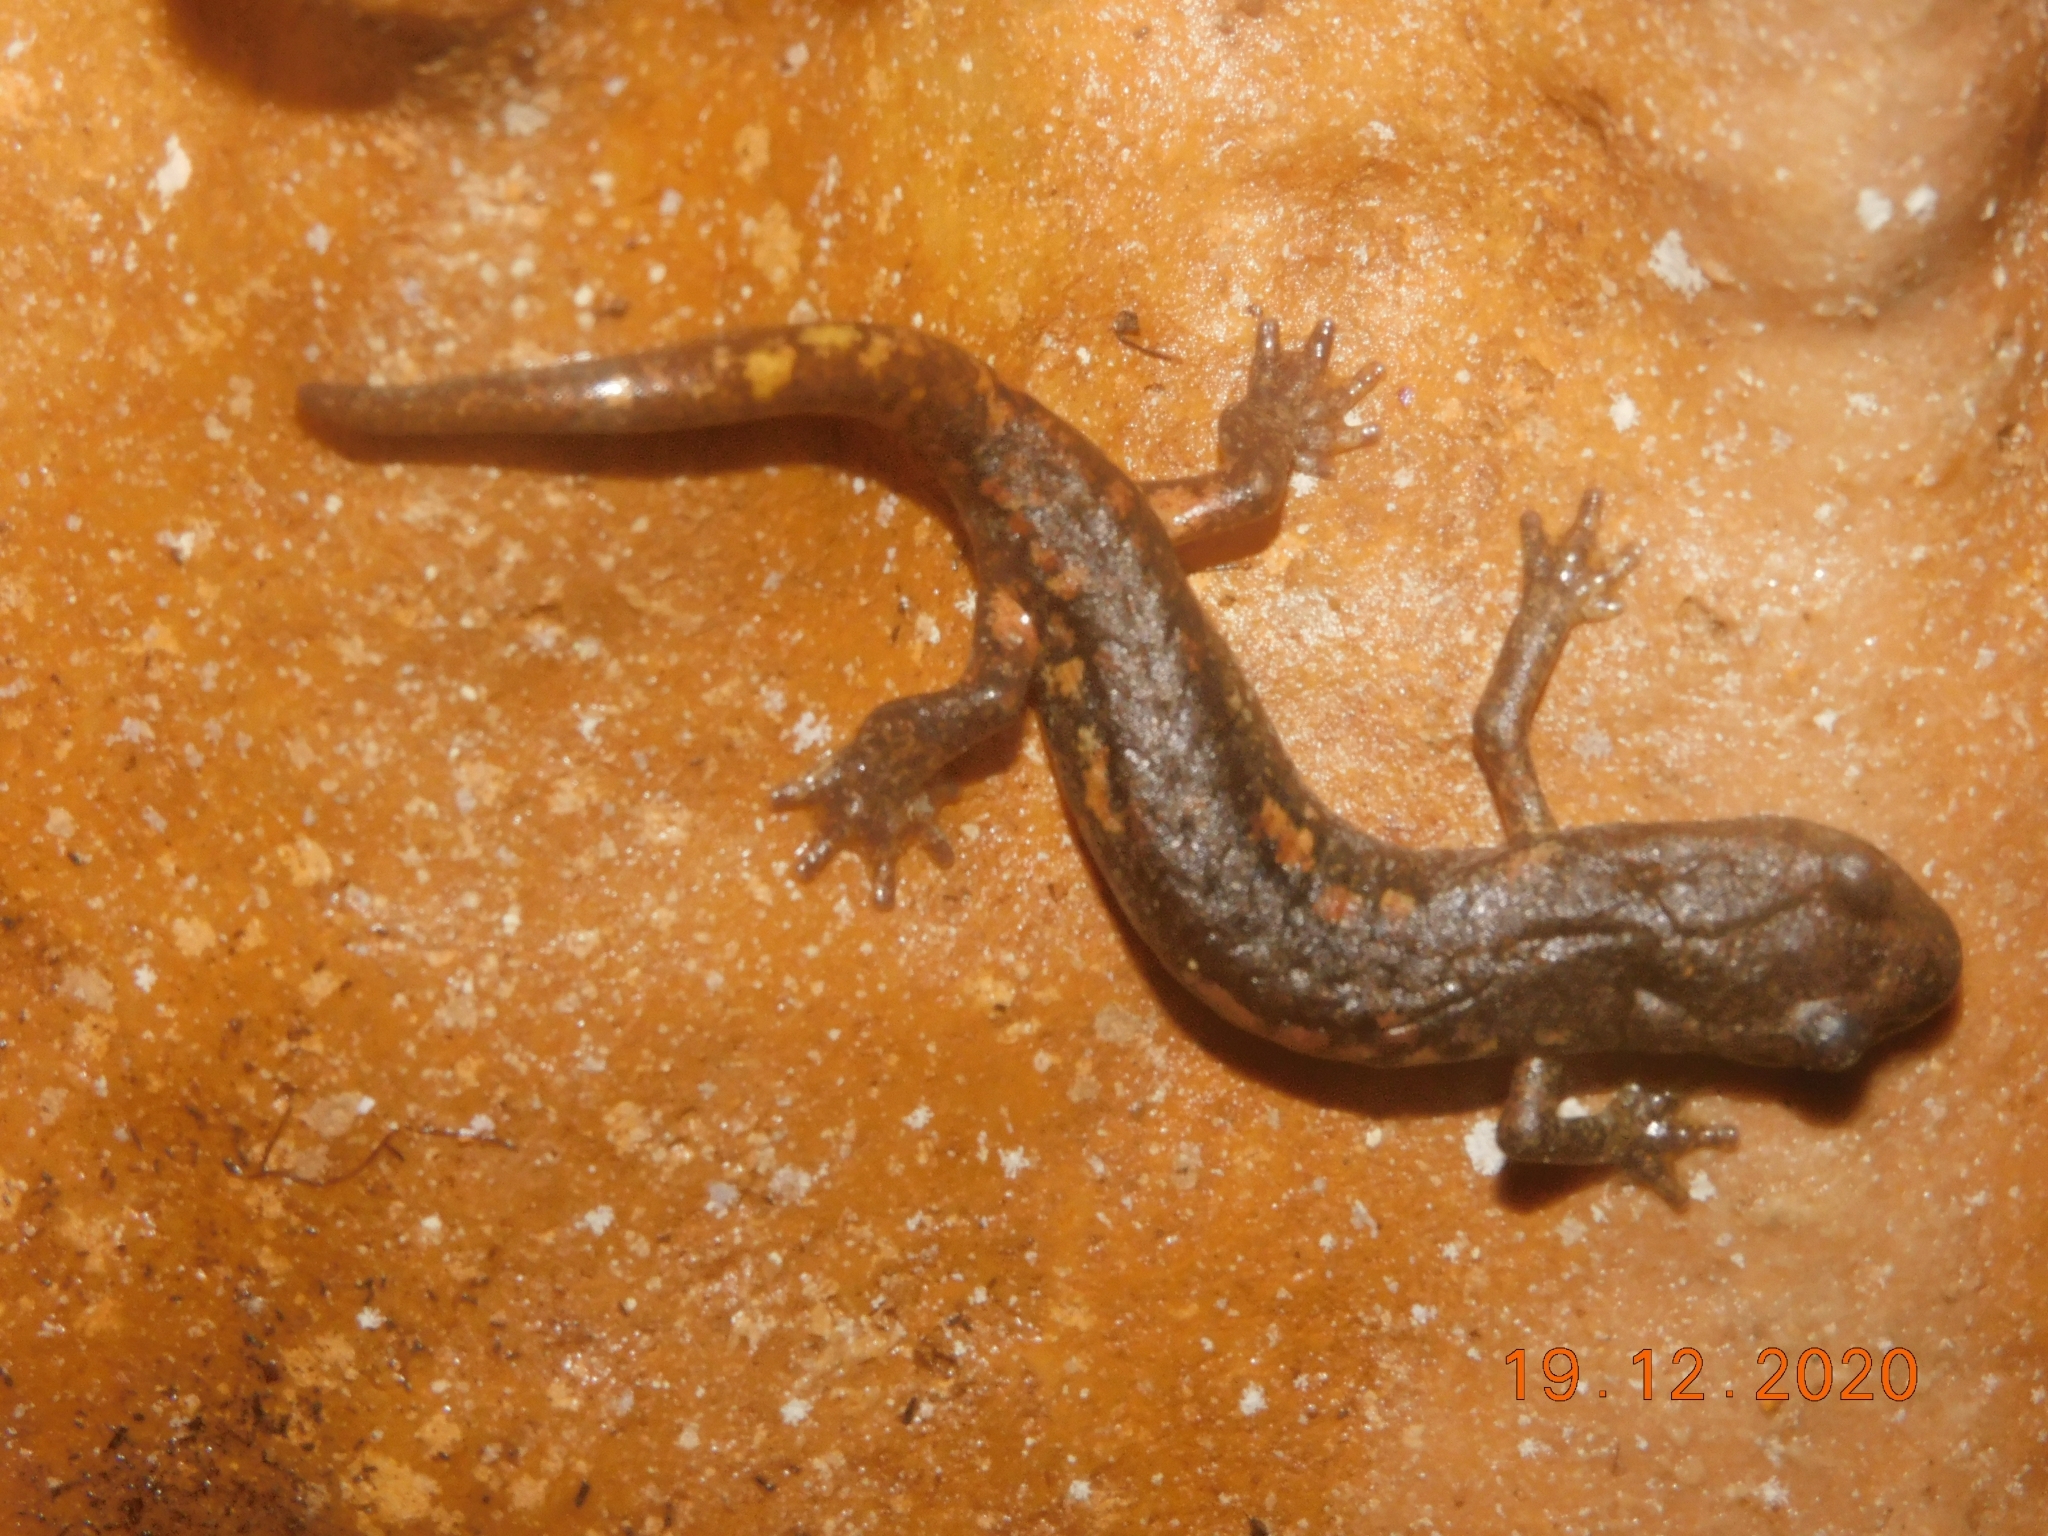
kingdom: Animalia
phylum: Chordata
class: Amphibia
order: Caudata
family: Plethodontidae
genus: Speleomantes
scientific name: Speleomantes ambrosii
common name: Ambrosi's cave salamander
